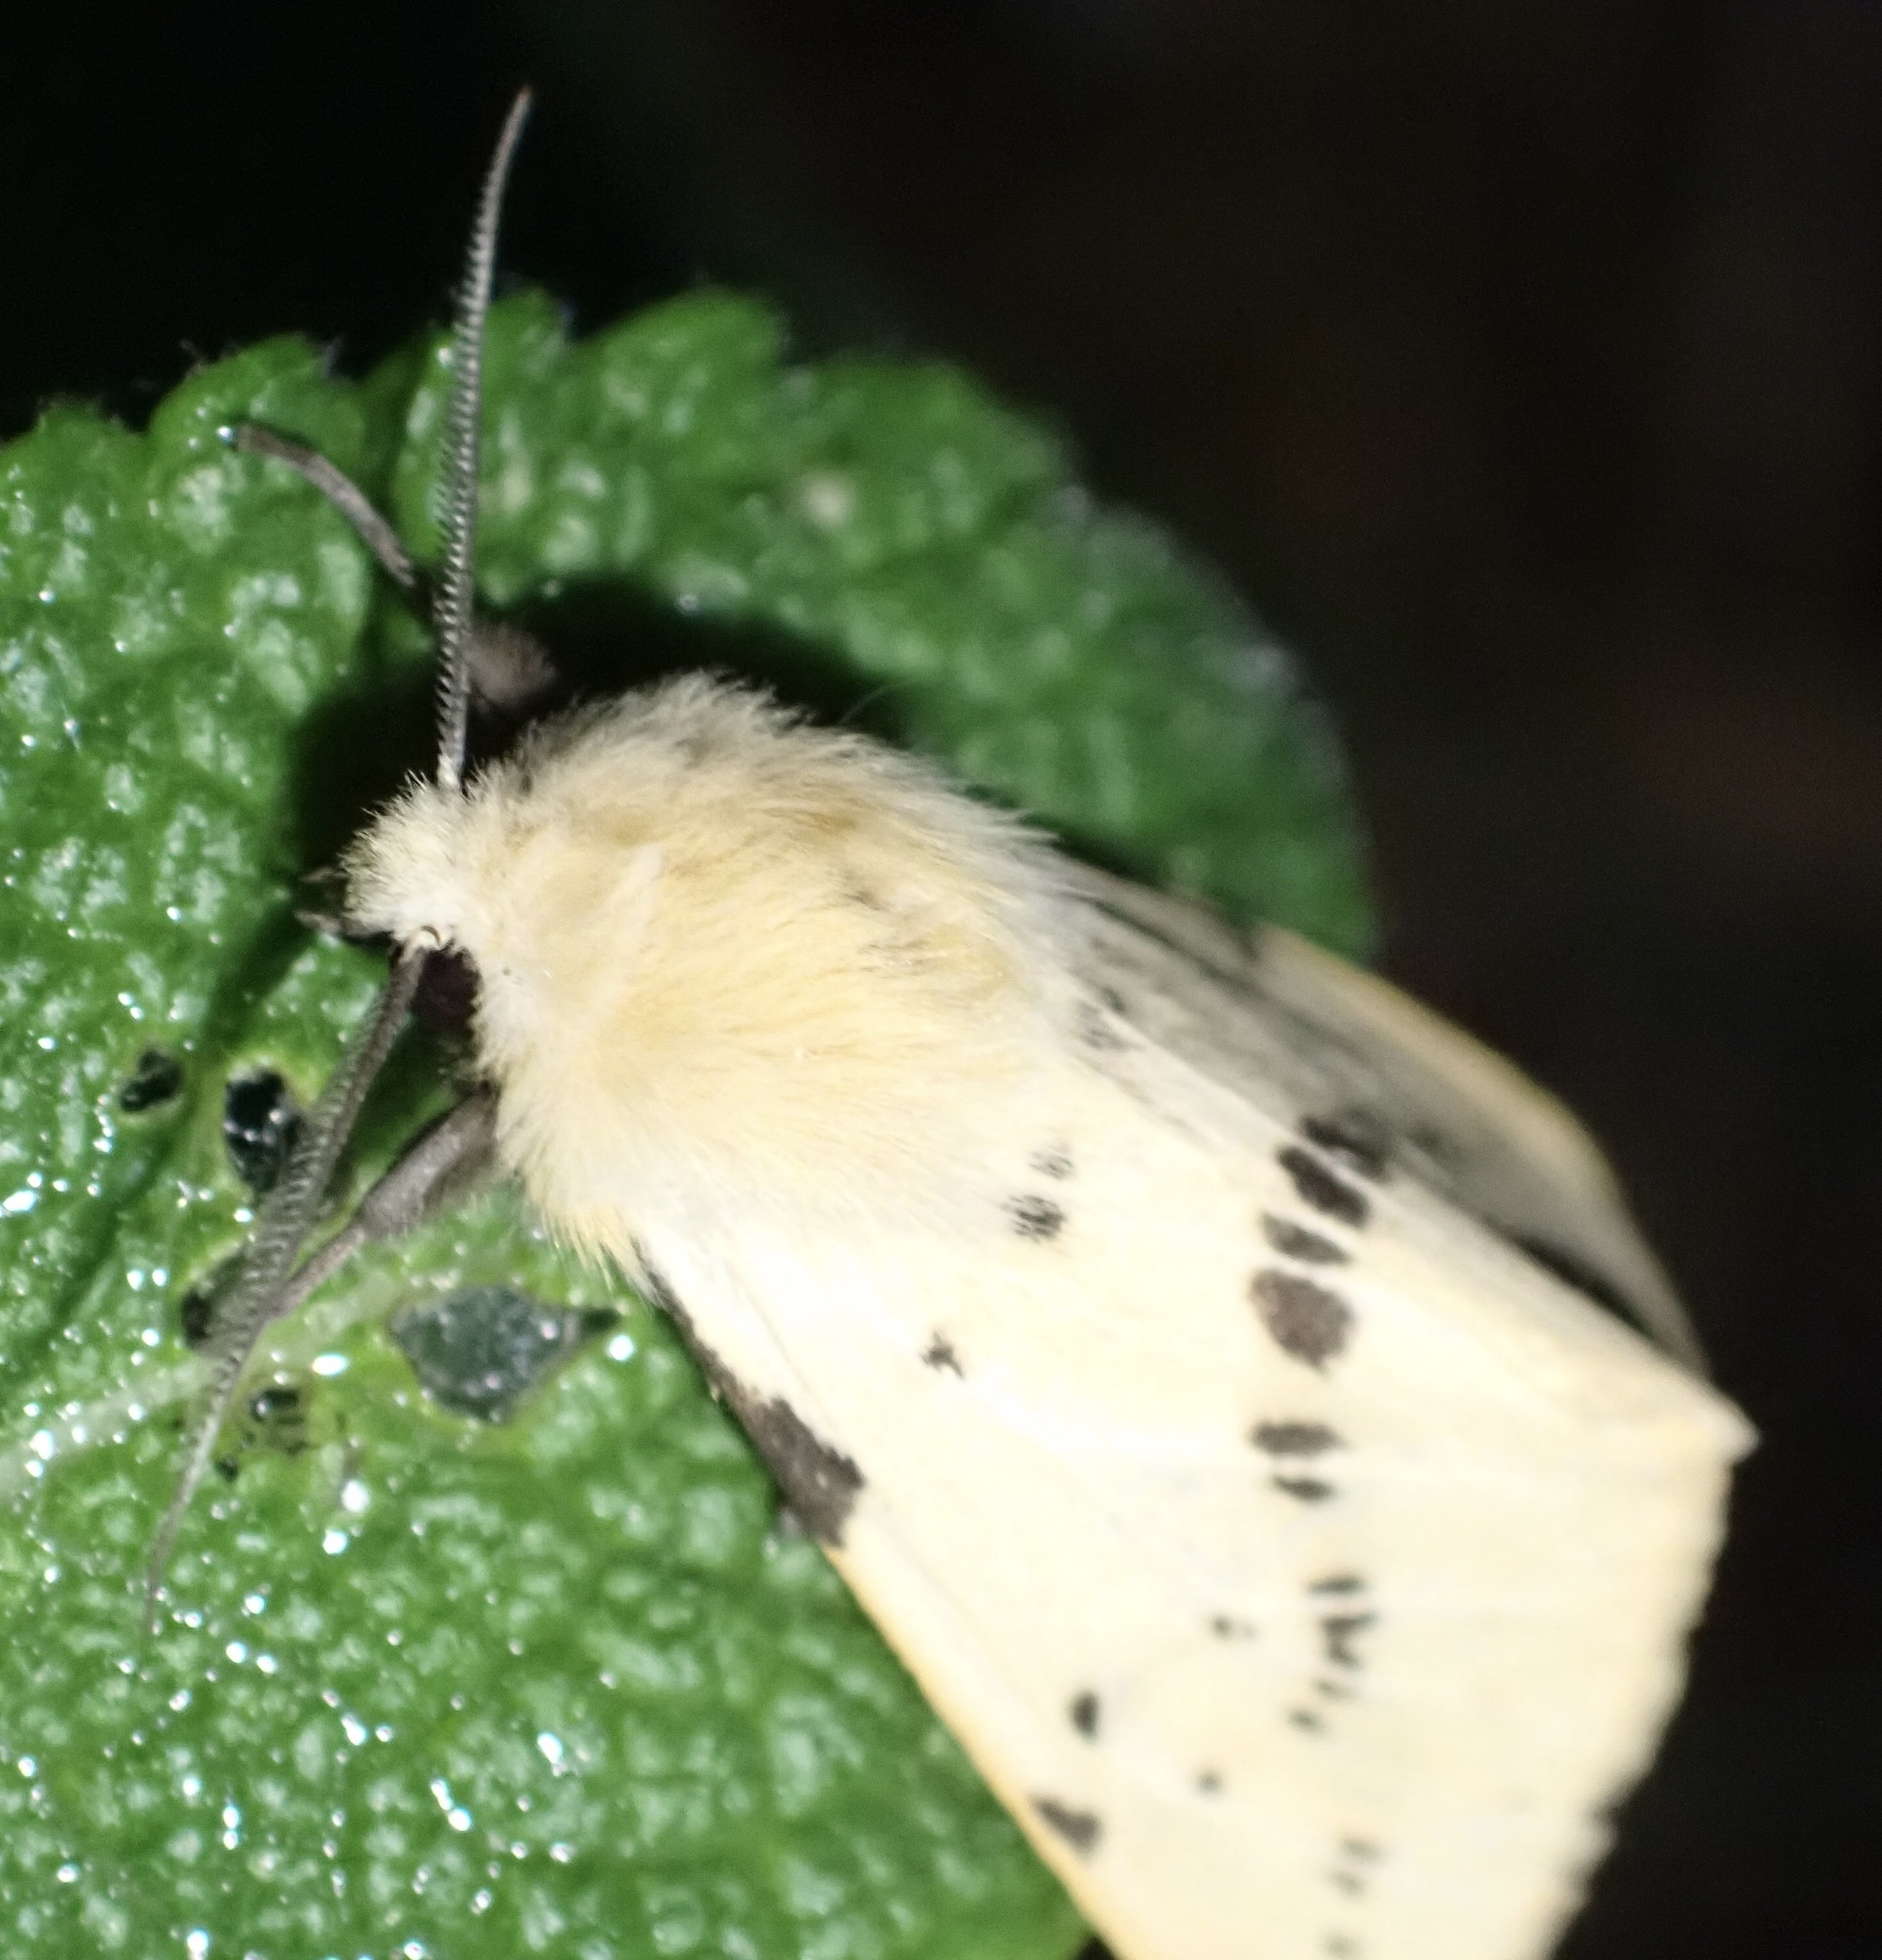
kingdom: Animalia
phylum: Arthropoda
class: Insecta
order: Lepidoptera
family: Erebidae
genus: Spilarctia
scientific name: Spilarctia lutea
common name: Buff ermine
